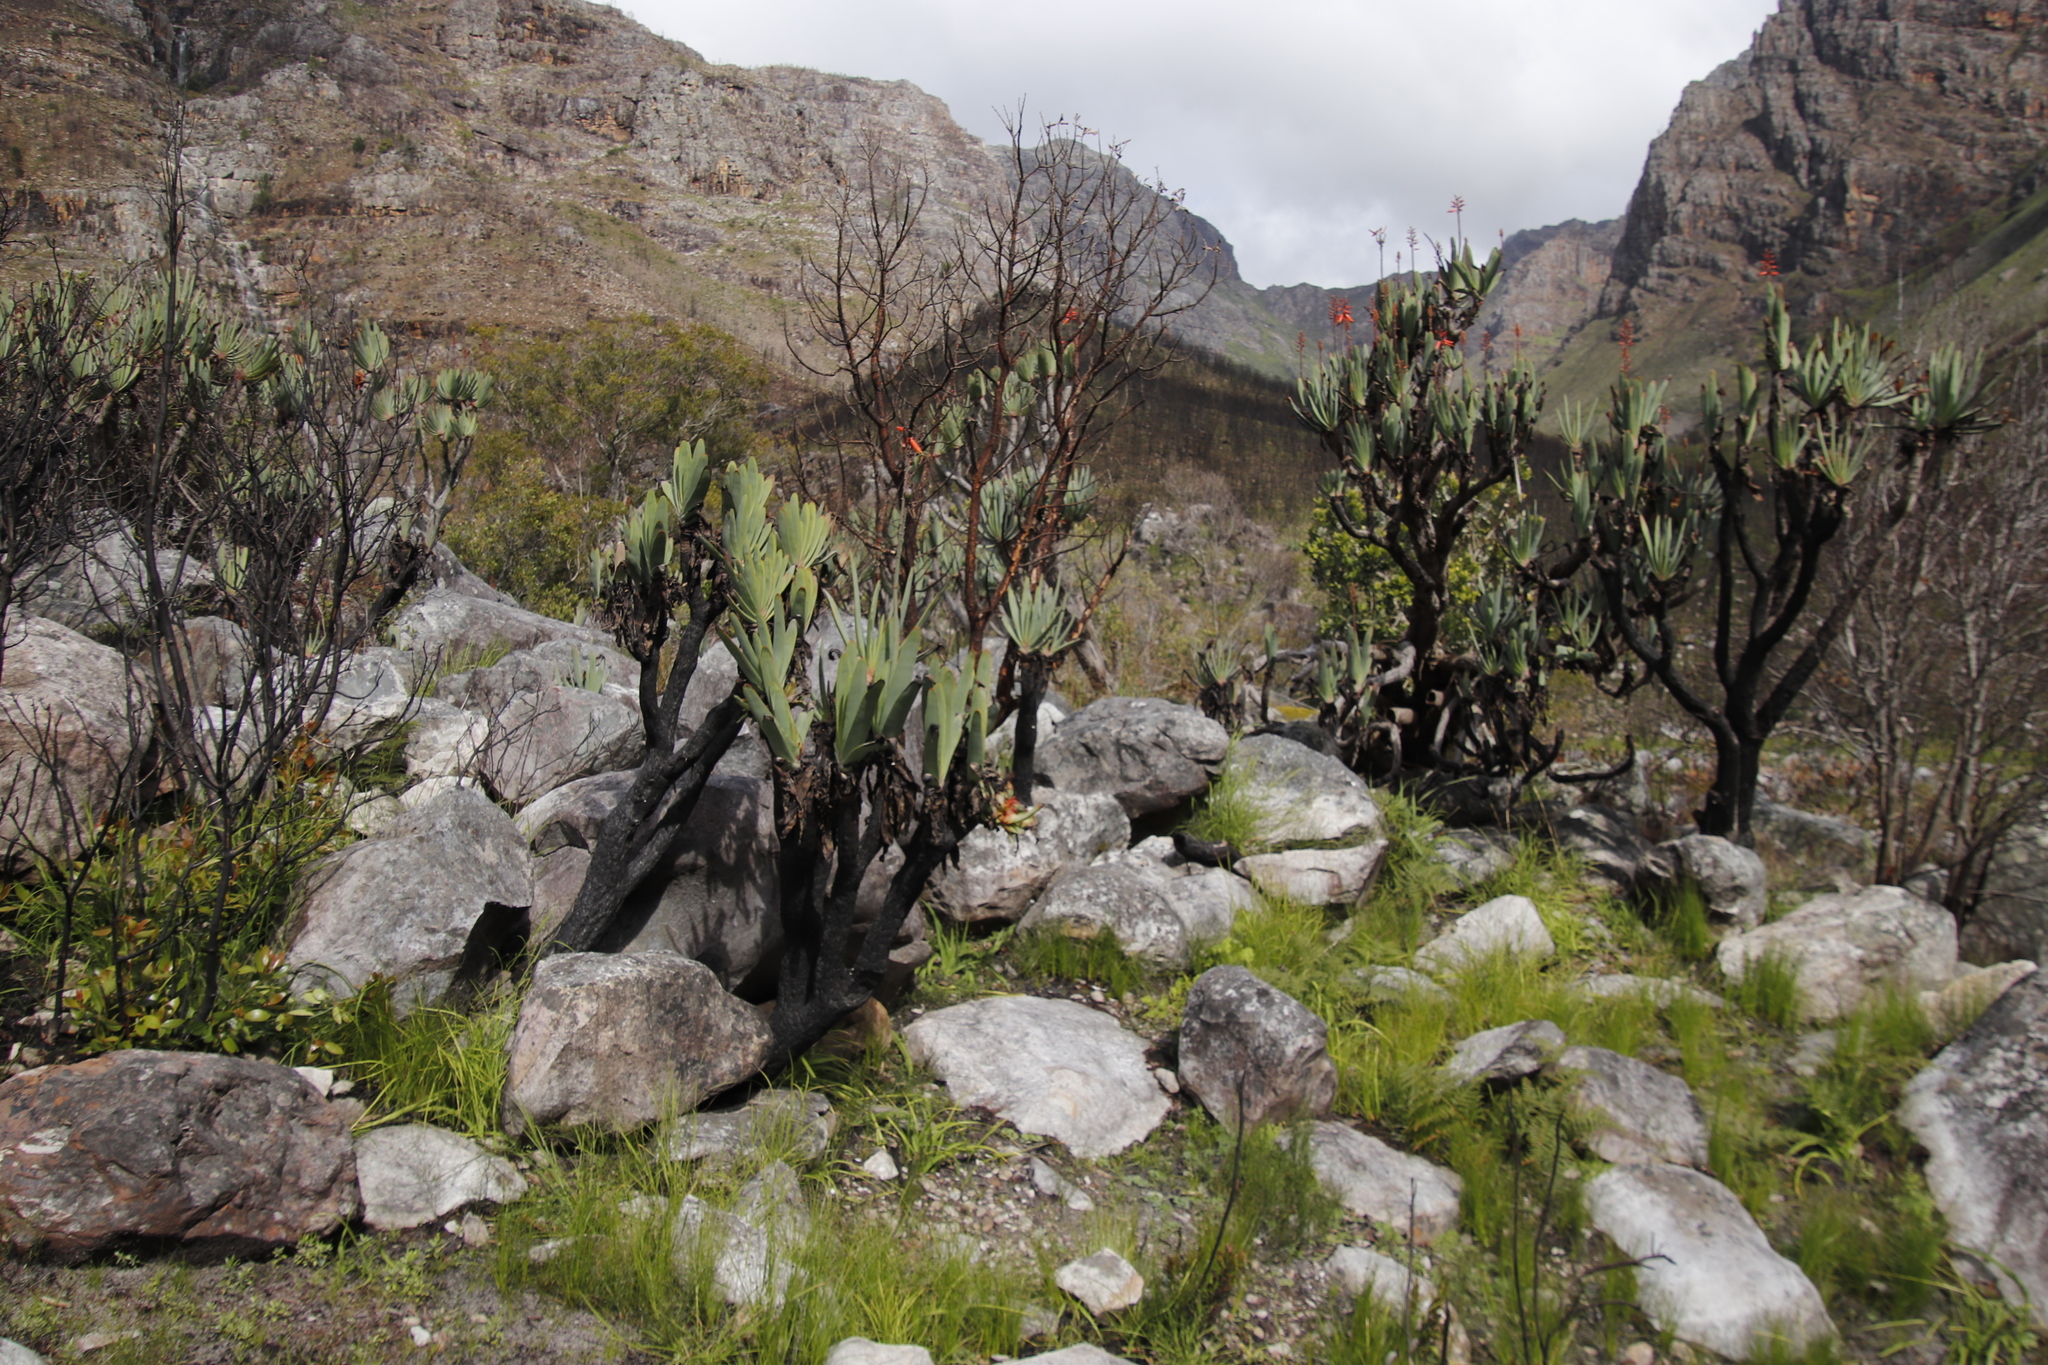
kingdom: Plantae
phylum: Tracheophyta
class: Liliopsida
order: Asparagales
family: Asphodelaceae
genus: Kumara
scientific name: Kumara plicatilis
